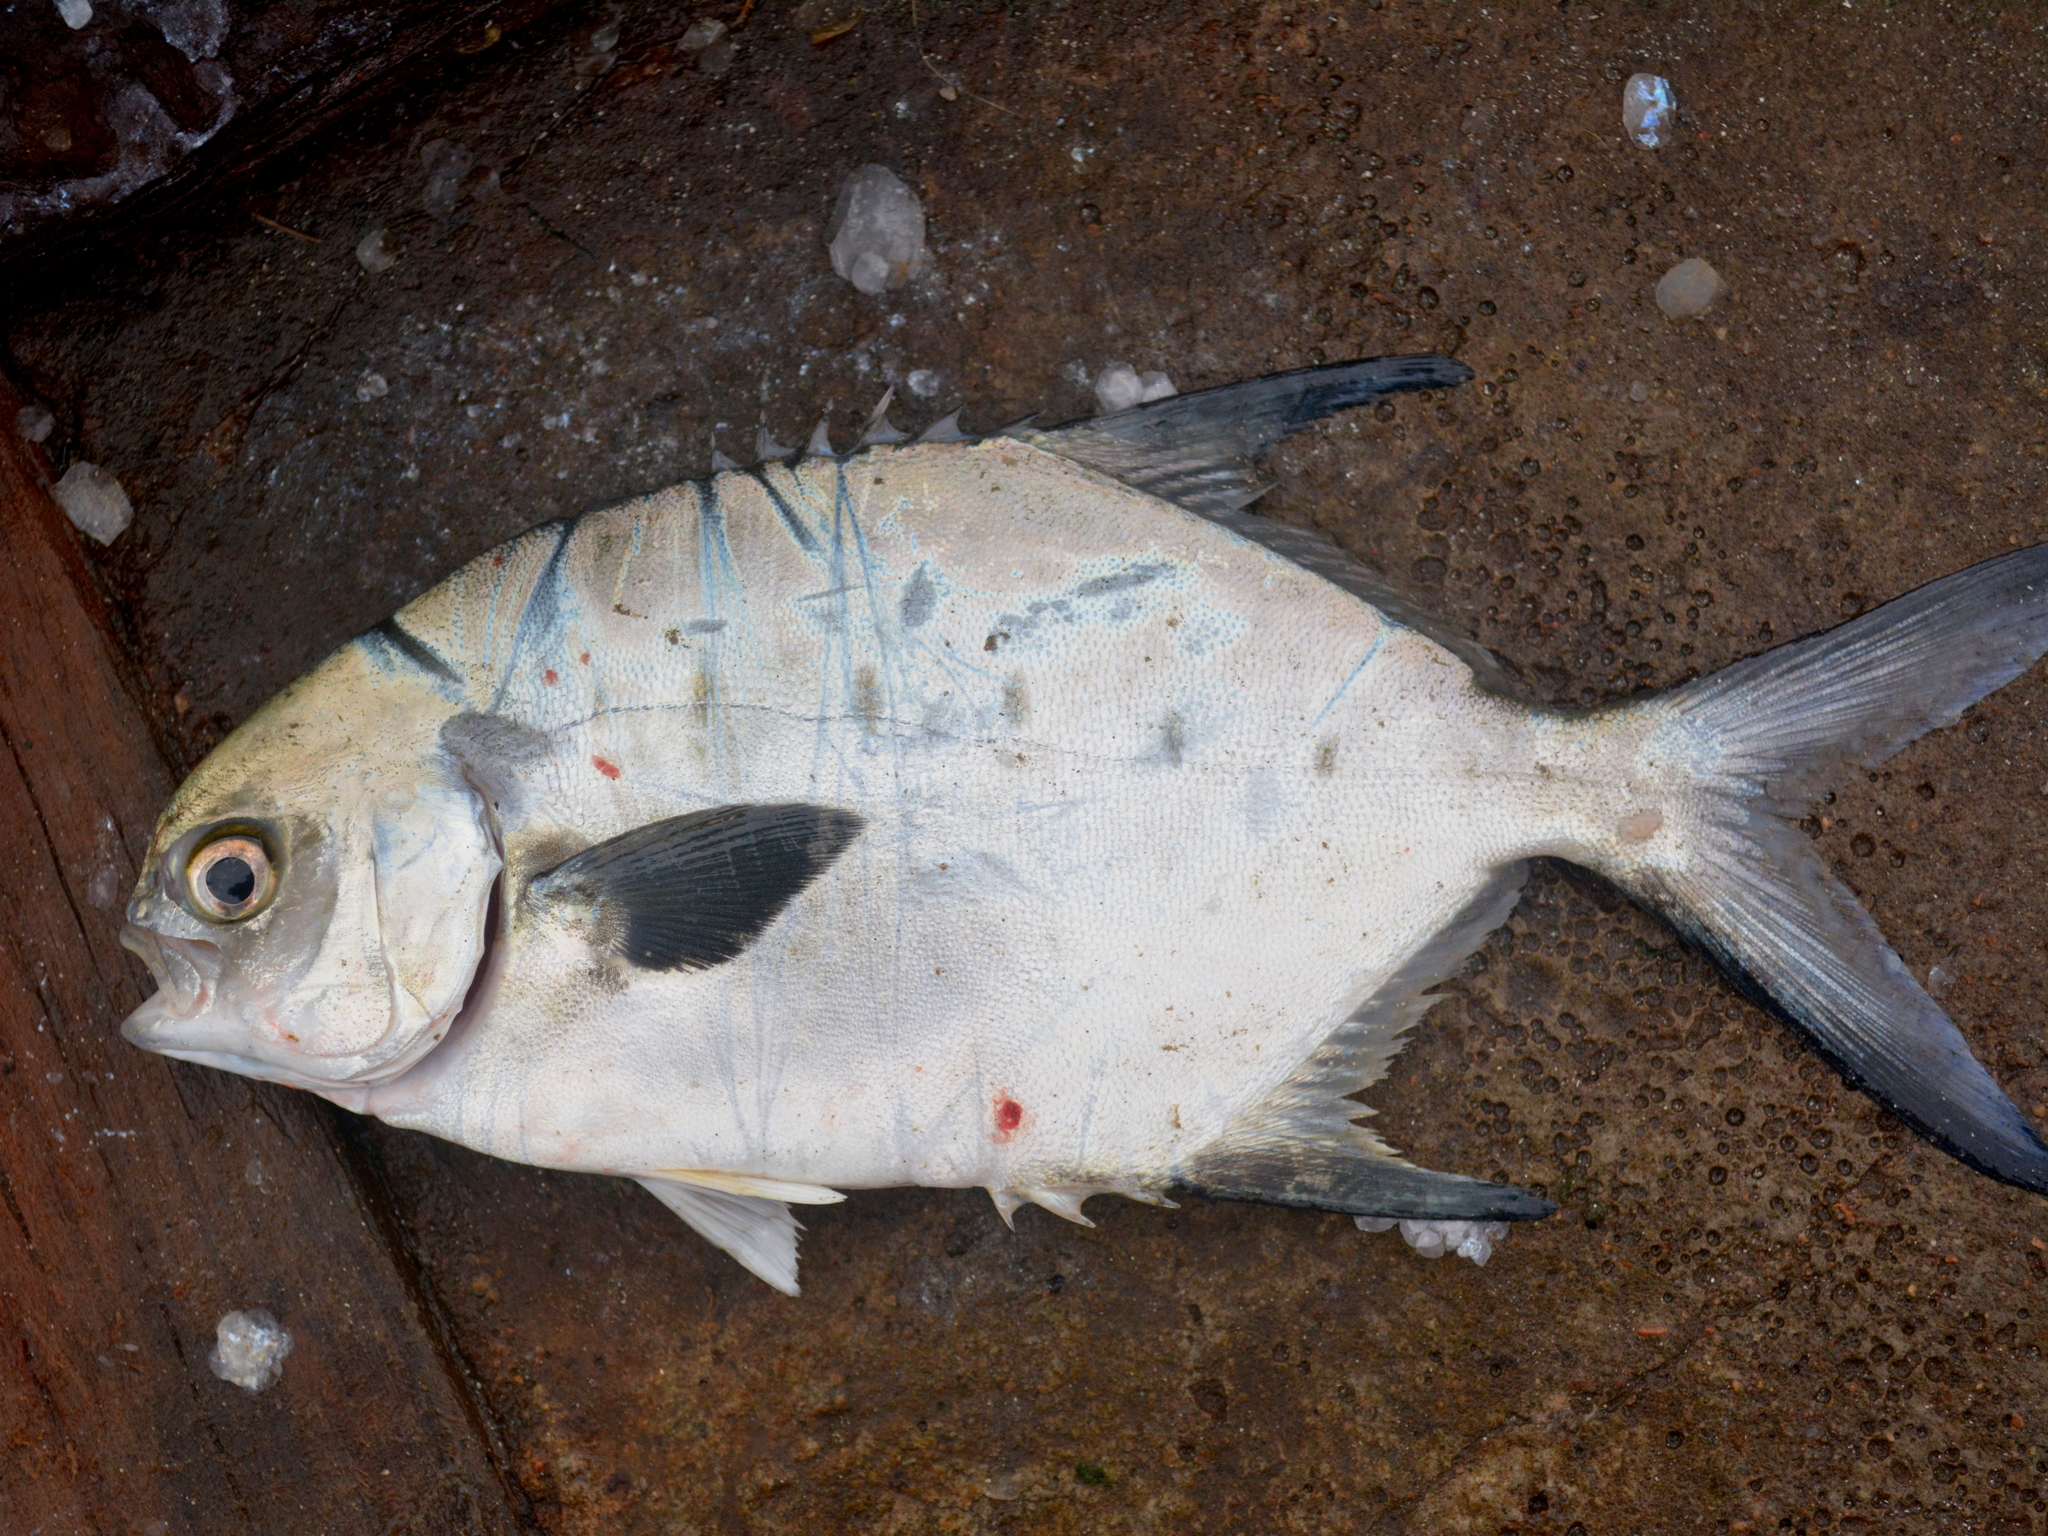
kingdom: Animalia
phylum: Chordata
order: Perciformes
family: Carangidae
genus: Trachinotus
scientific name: Trachinotus marginatus
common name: Plata pompano
